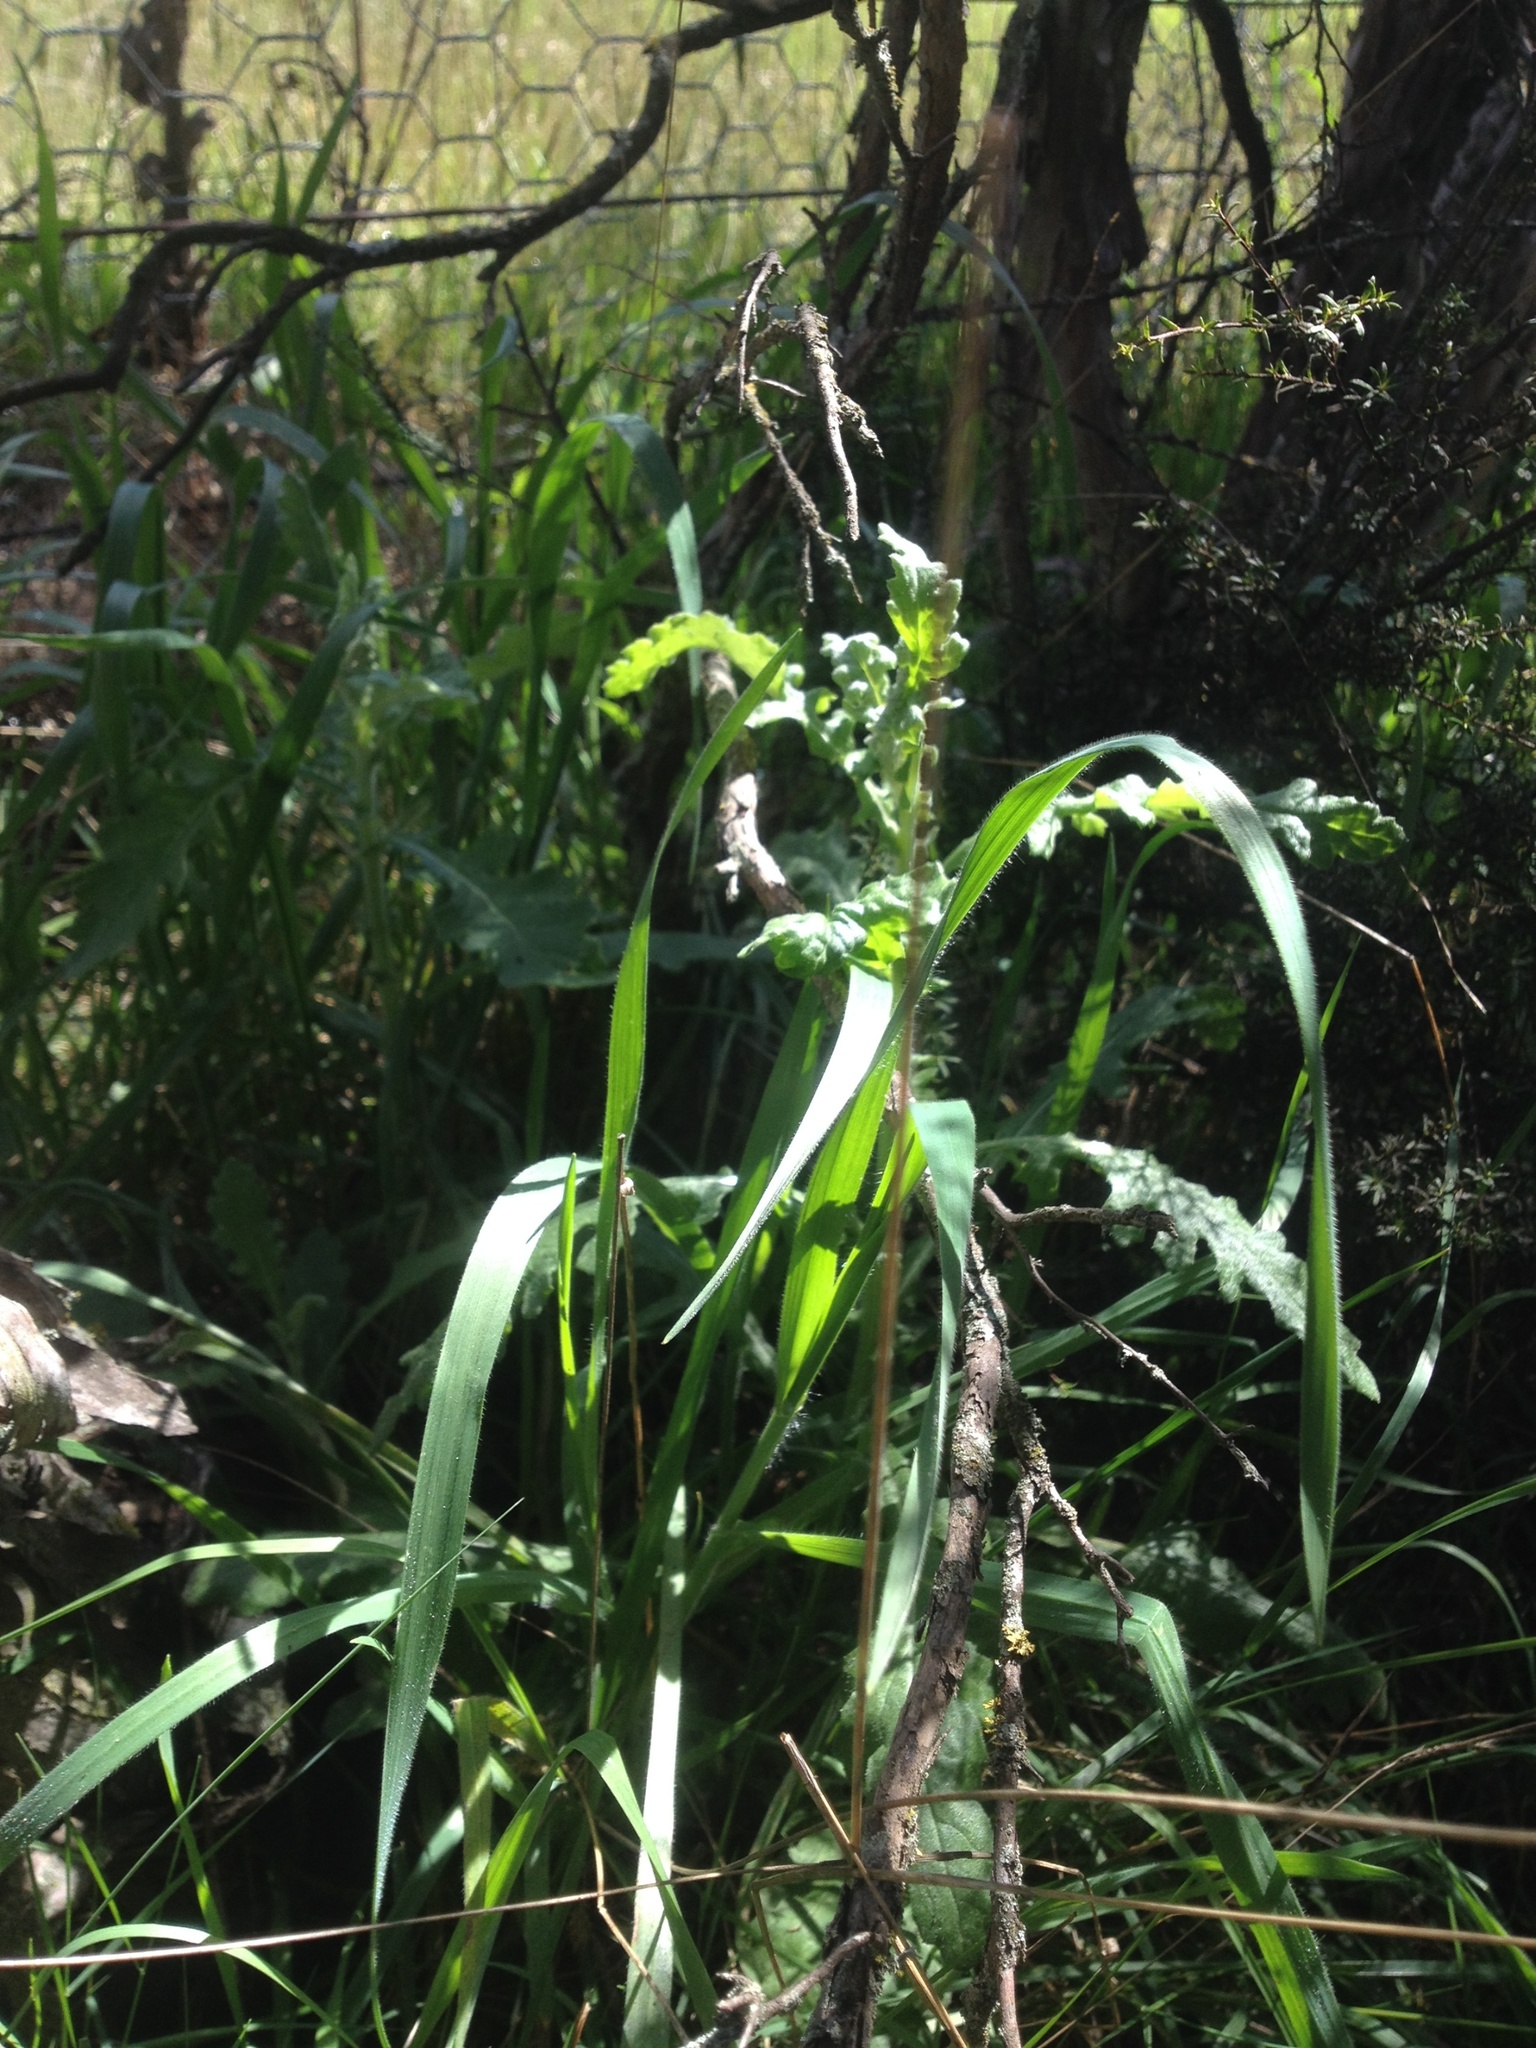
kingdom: Plantae
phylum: Tracheophyta
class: Magnoliopsida
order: Asterales
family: Asteraceae
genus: Senecio
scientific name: Senecio glomeratus
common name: Cutleaf burnweed
